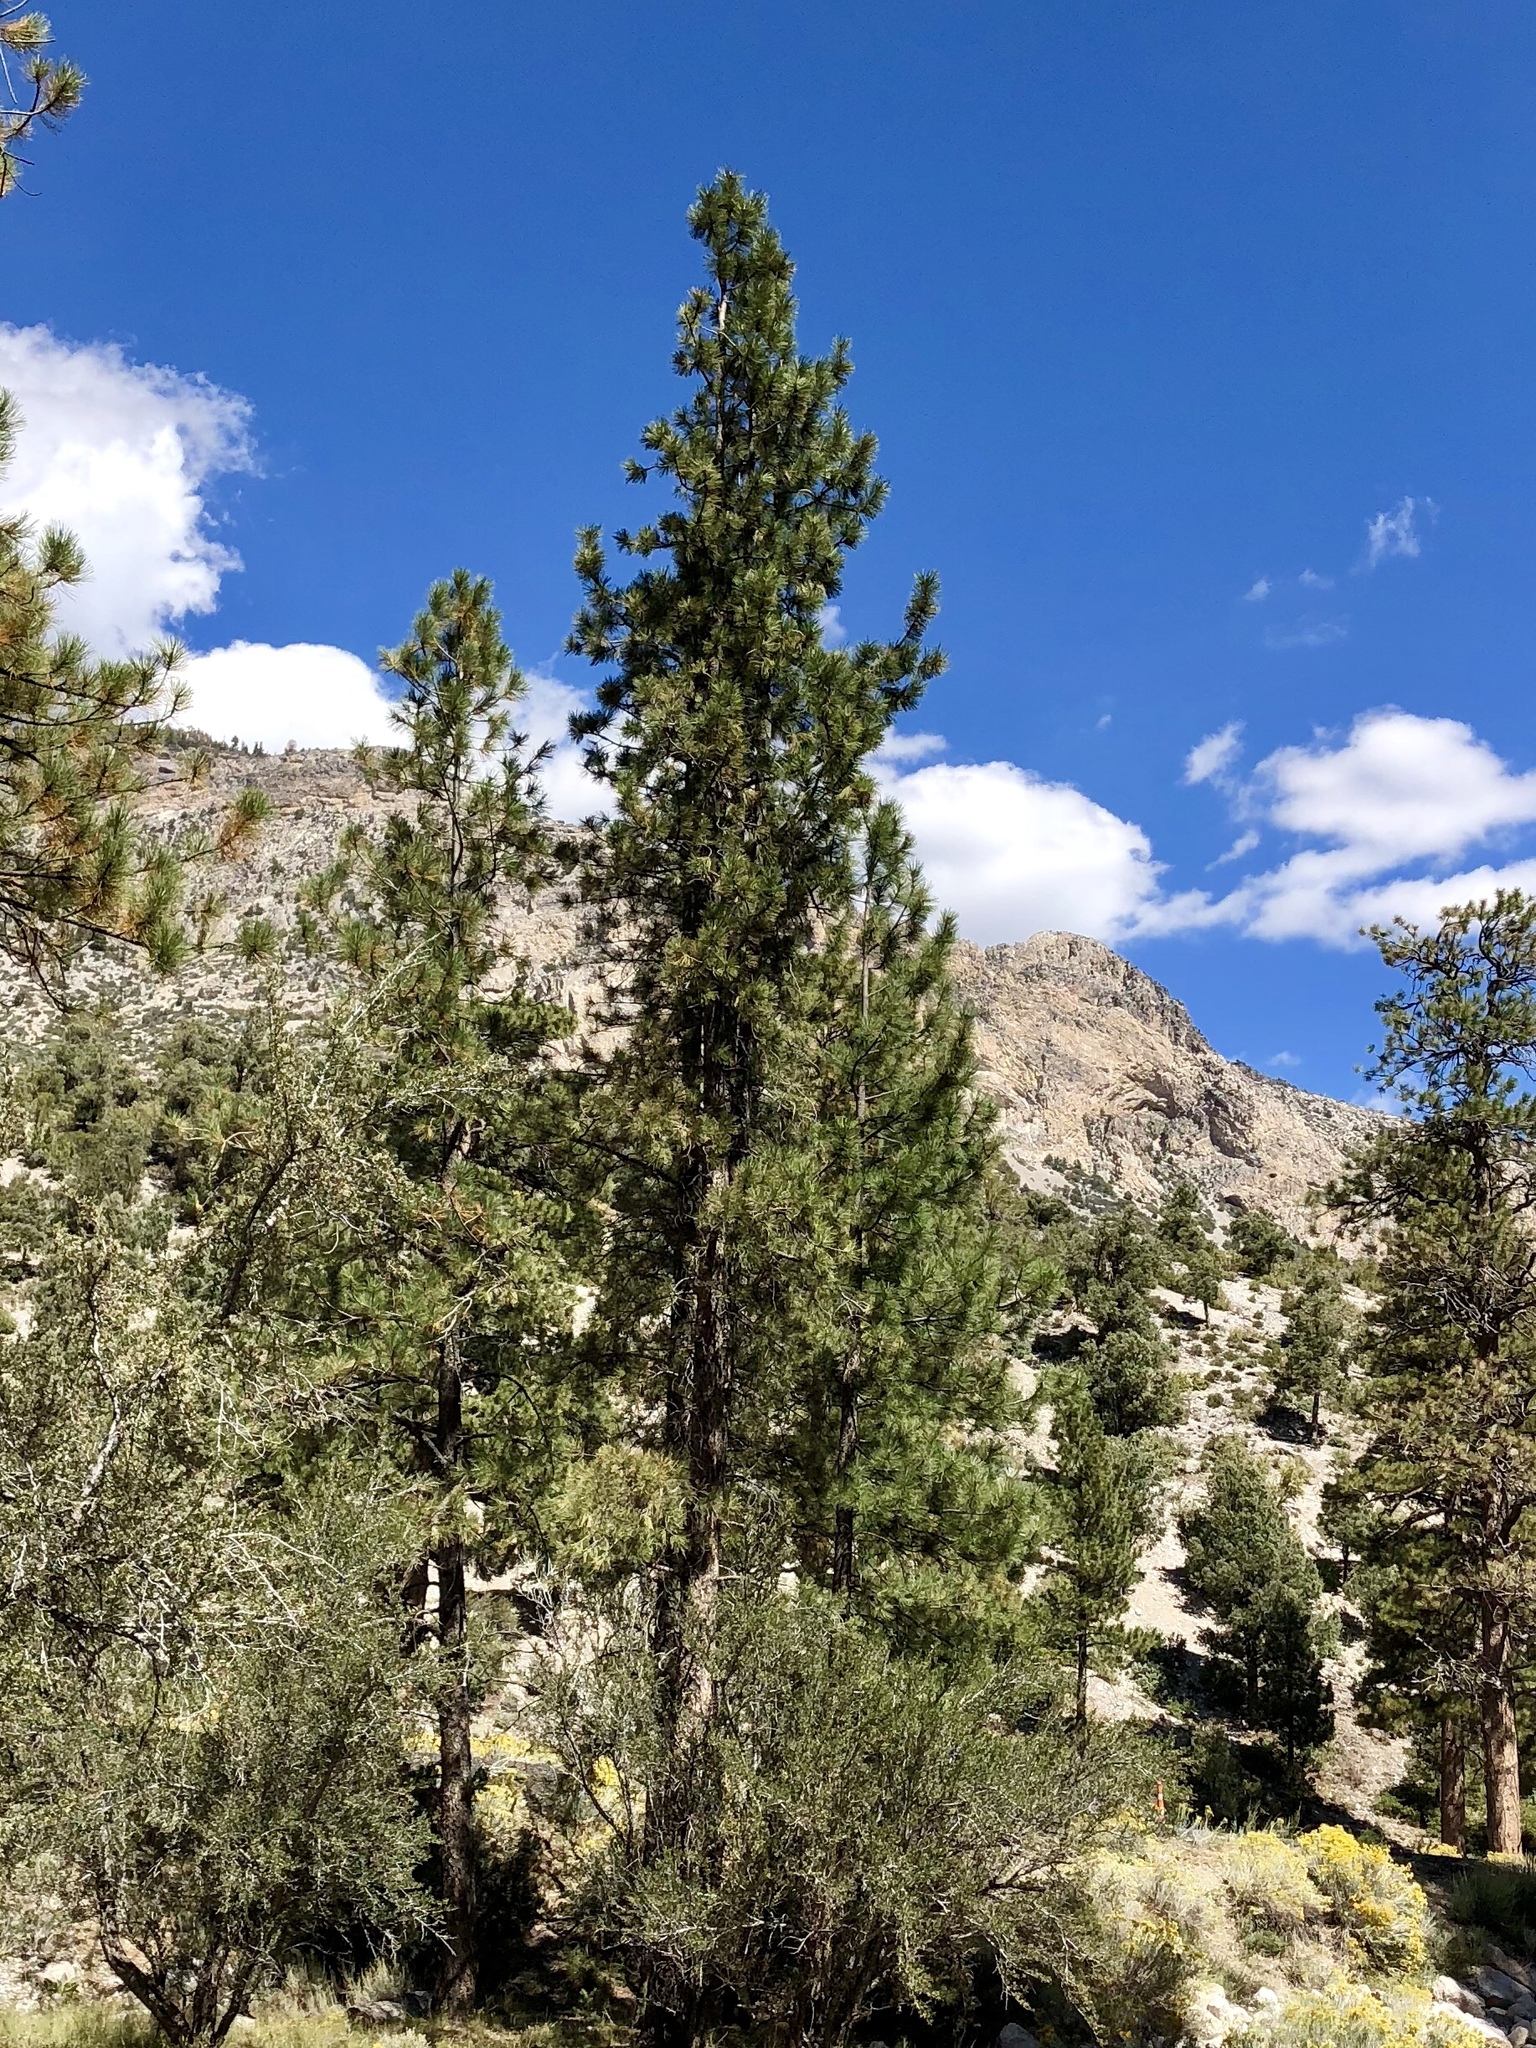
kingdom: Plantae
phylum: Tracheophyta
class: Pinopsida
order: Pinales
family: Pinaceae
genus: Pinus
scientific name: Pinus ponderosa
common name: Western yellow-pine
